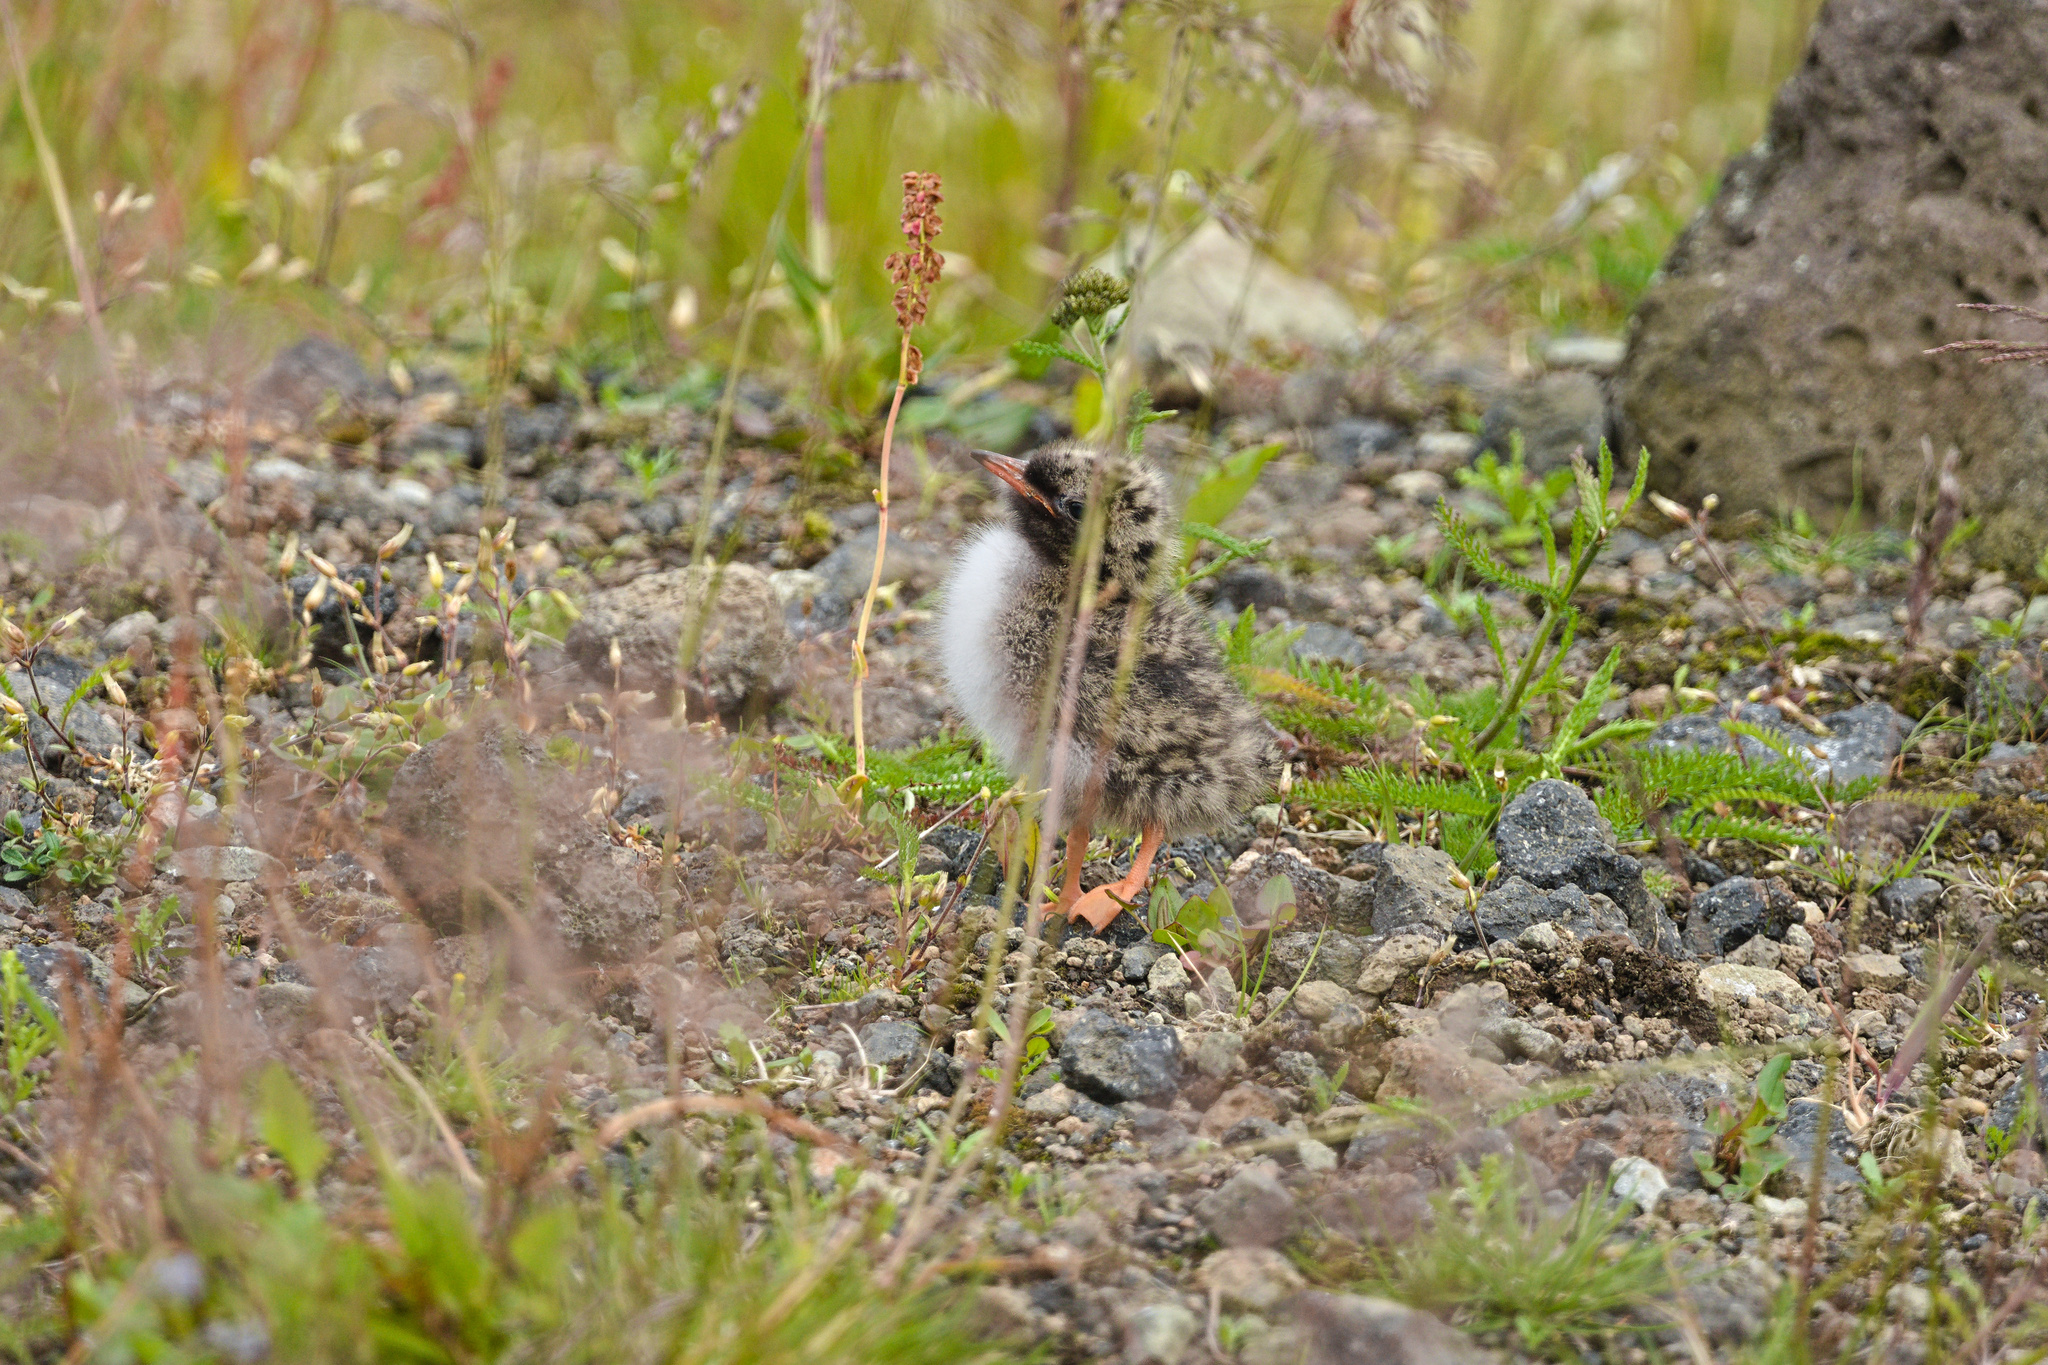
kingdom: Animalia
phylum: Chordata
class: Aves
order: Charadriiformes
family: Laridae
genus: Sterna
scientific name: Sterna paradisaea
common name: Arctic tern
